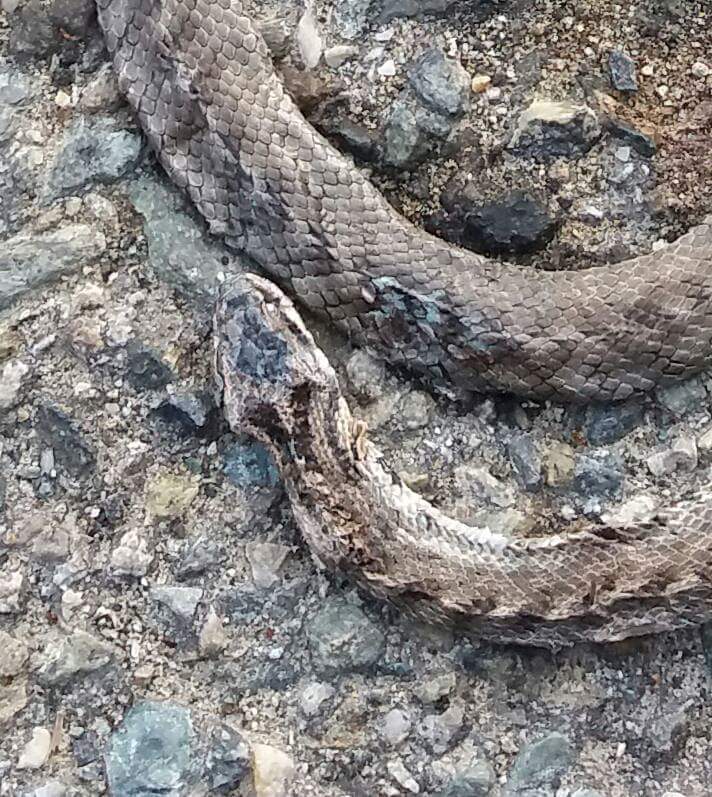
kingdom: Animalia
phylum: Chordata
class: Squamata
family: Colubridae
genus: Coronella
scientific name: Coronella girondica
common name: Southern smooth snake
